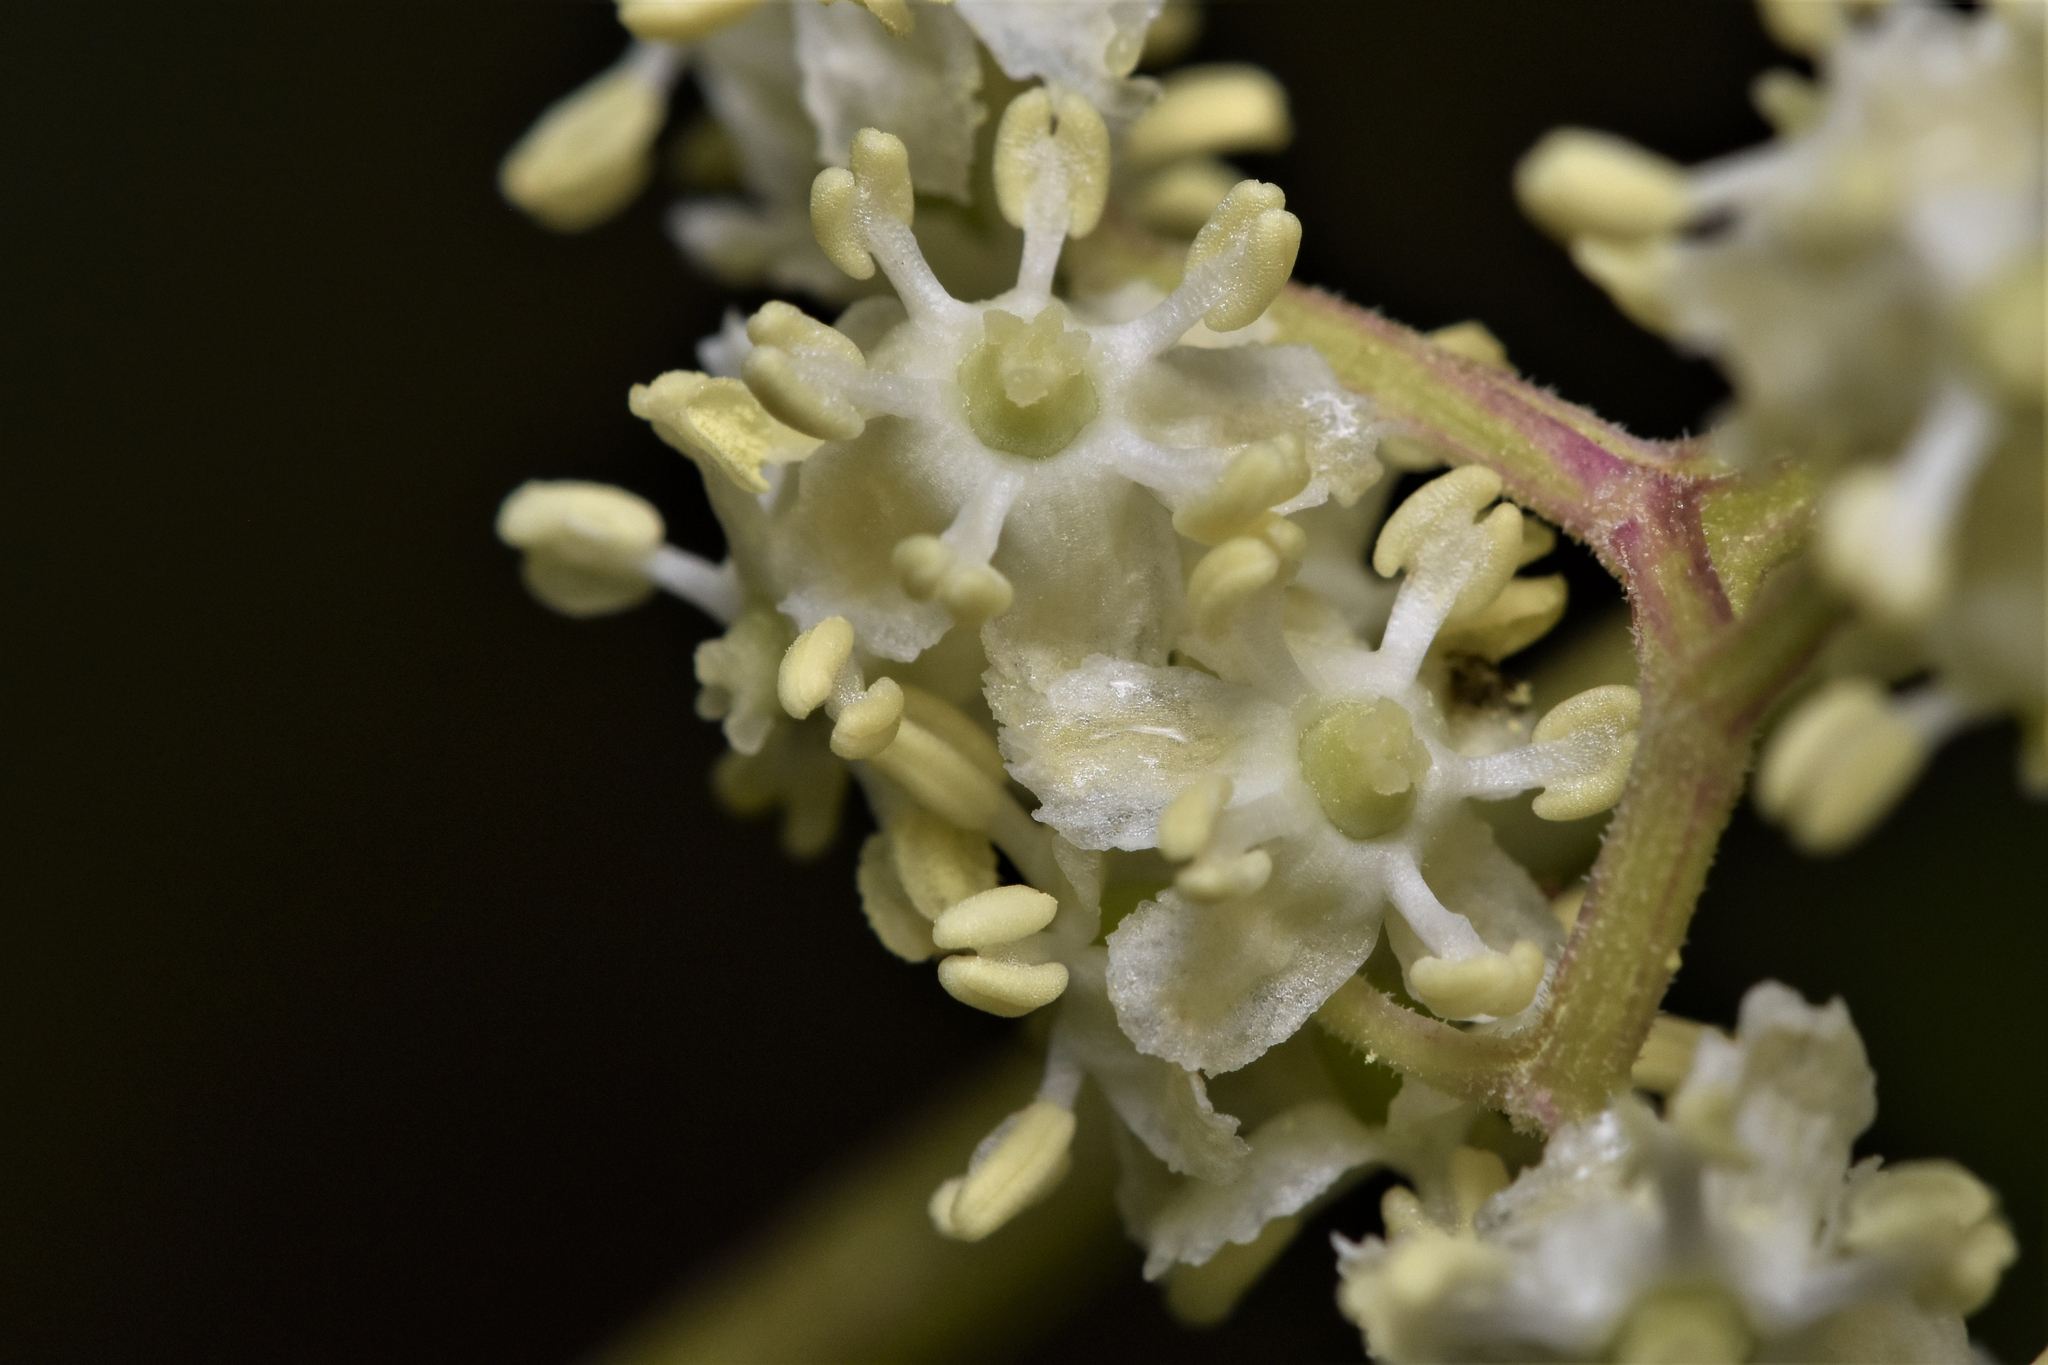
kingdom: Plantae
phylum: Tracheophyta
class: Magnoliopsida
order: Dipsacales
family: Viburnaceae
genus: Sambucus
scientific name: Sambucus racemosa
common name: Red-berried elder
